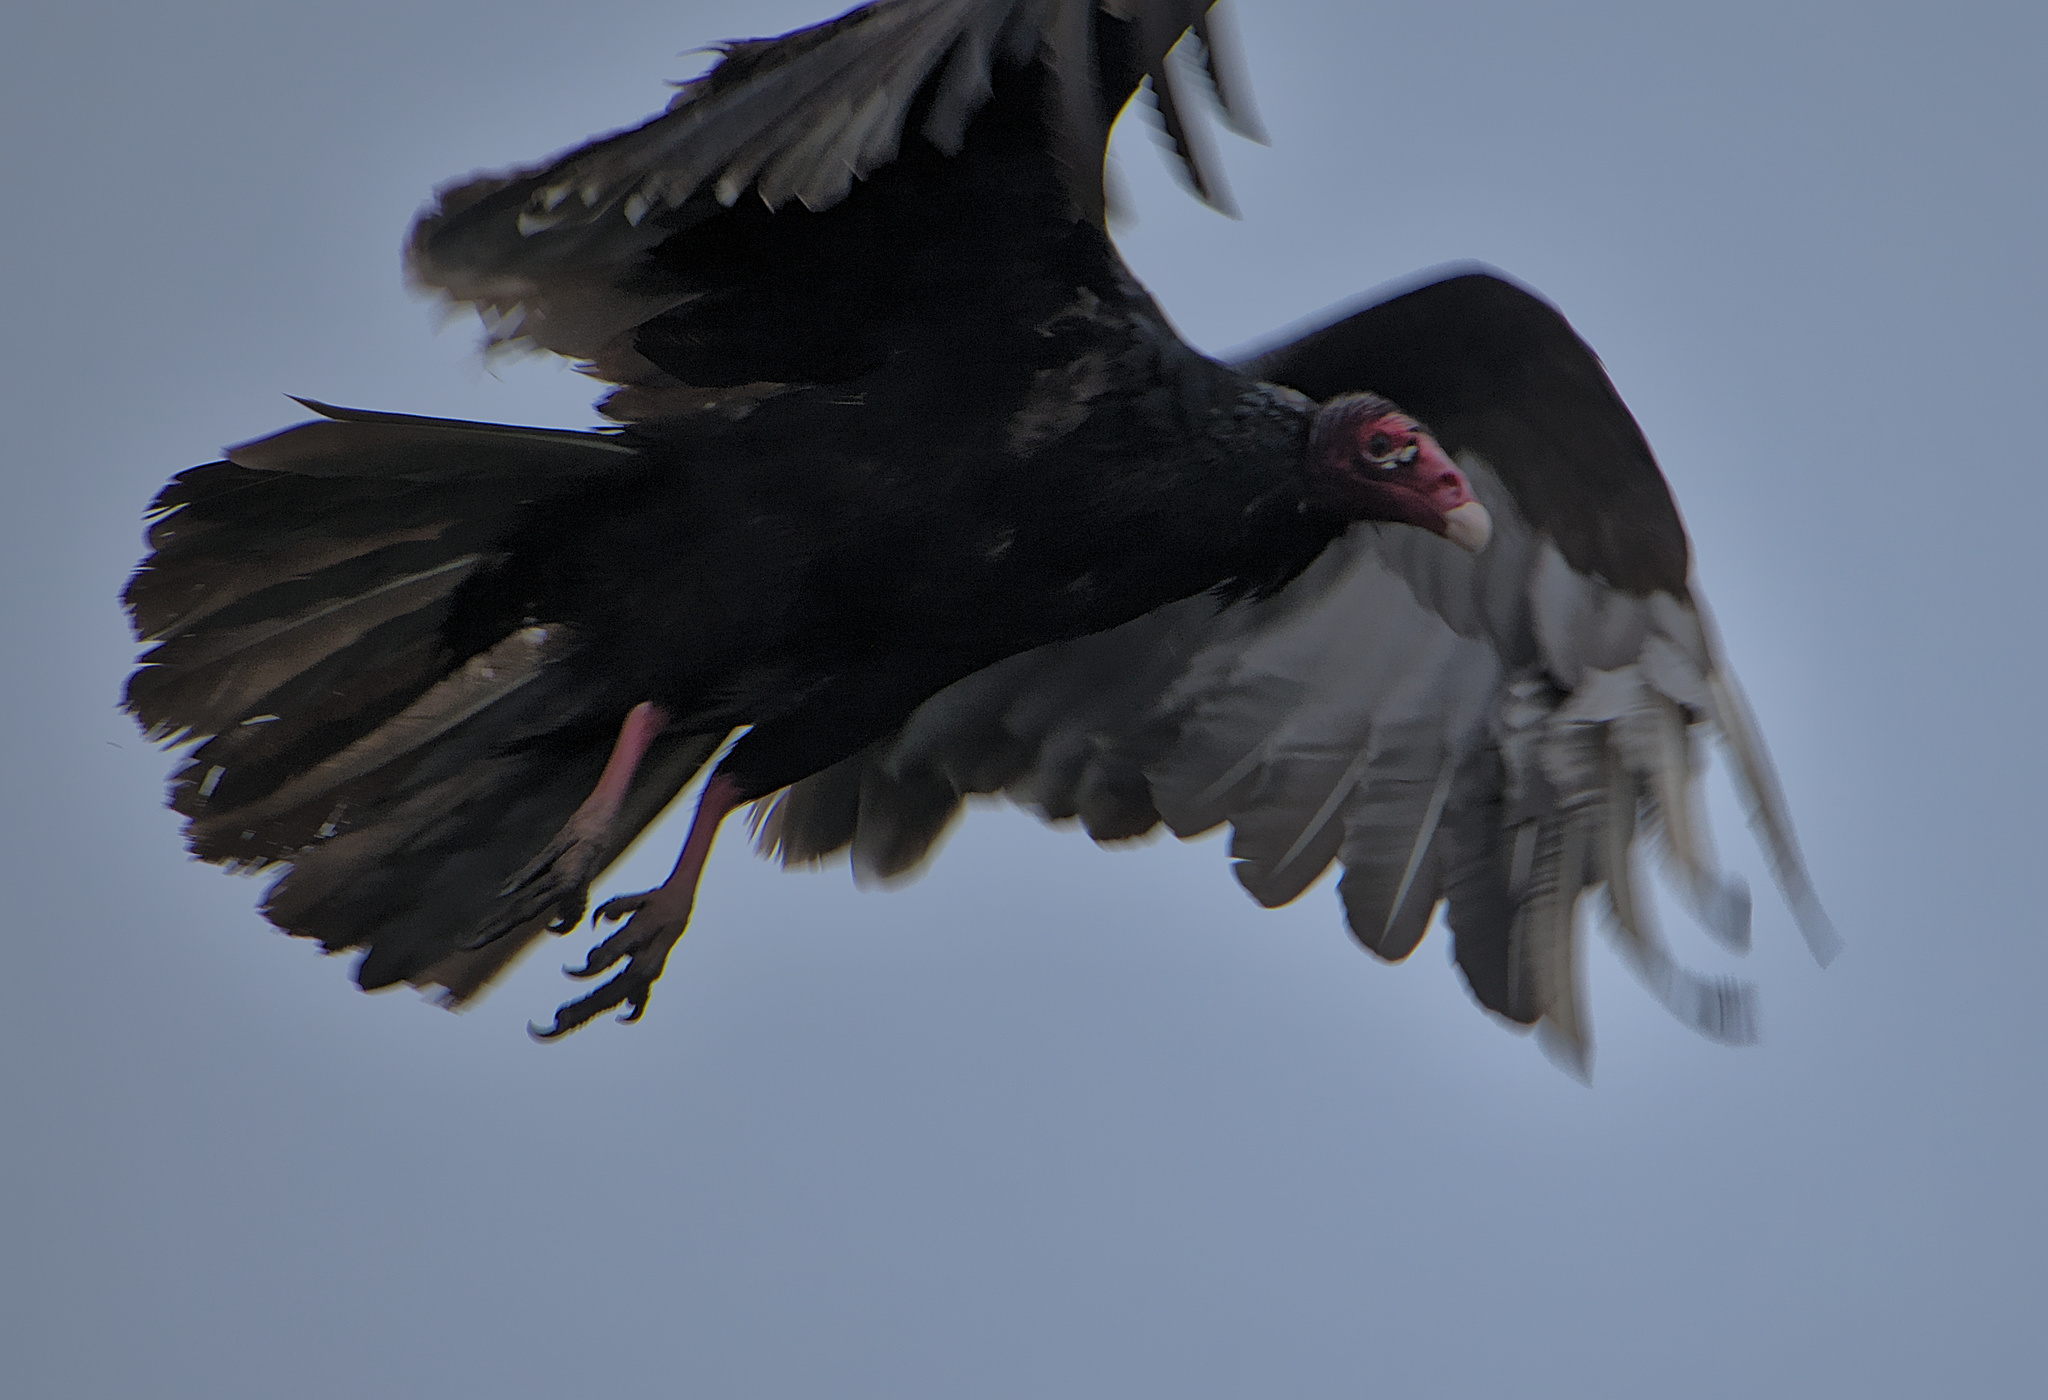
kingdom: Animalia
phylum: Chordata
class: Aves
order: Accipitriformes
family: Cathartidae
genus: Cathartes
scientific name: Cathartes aura
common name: Turkey vulture
